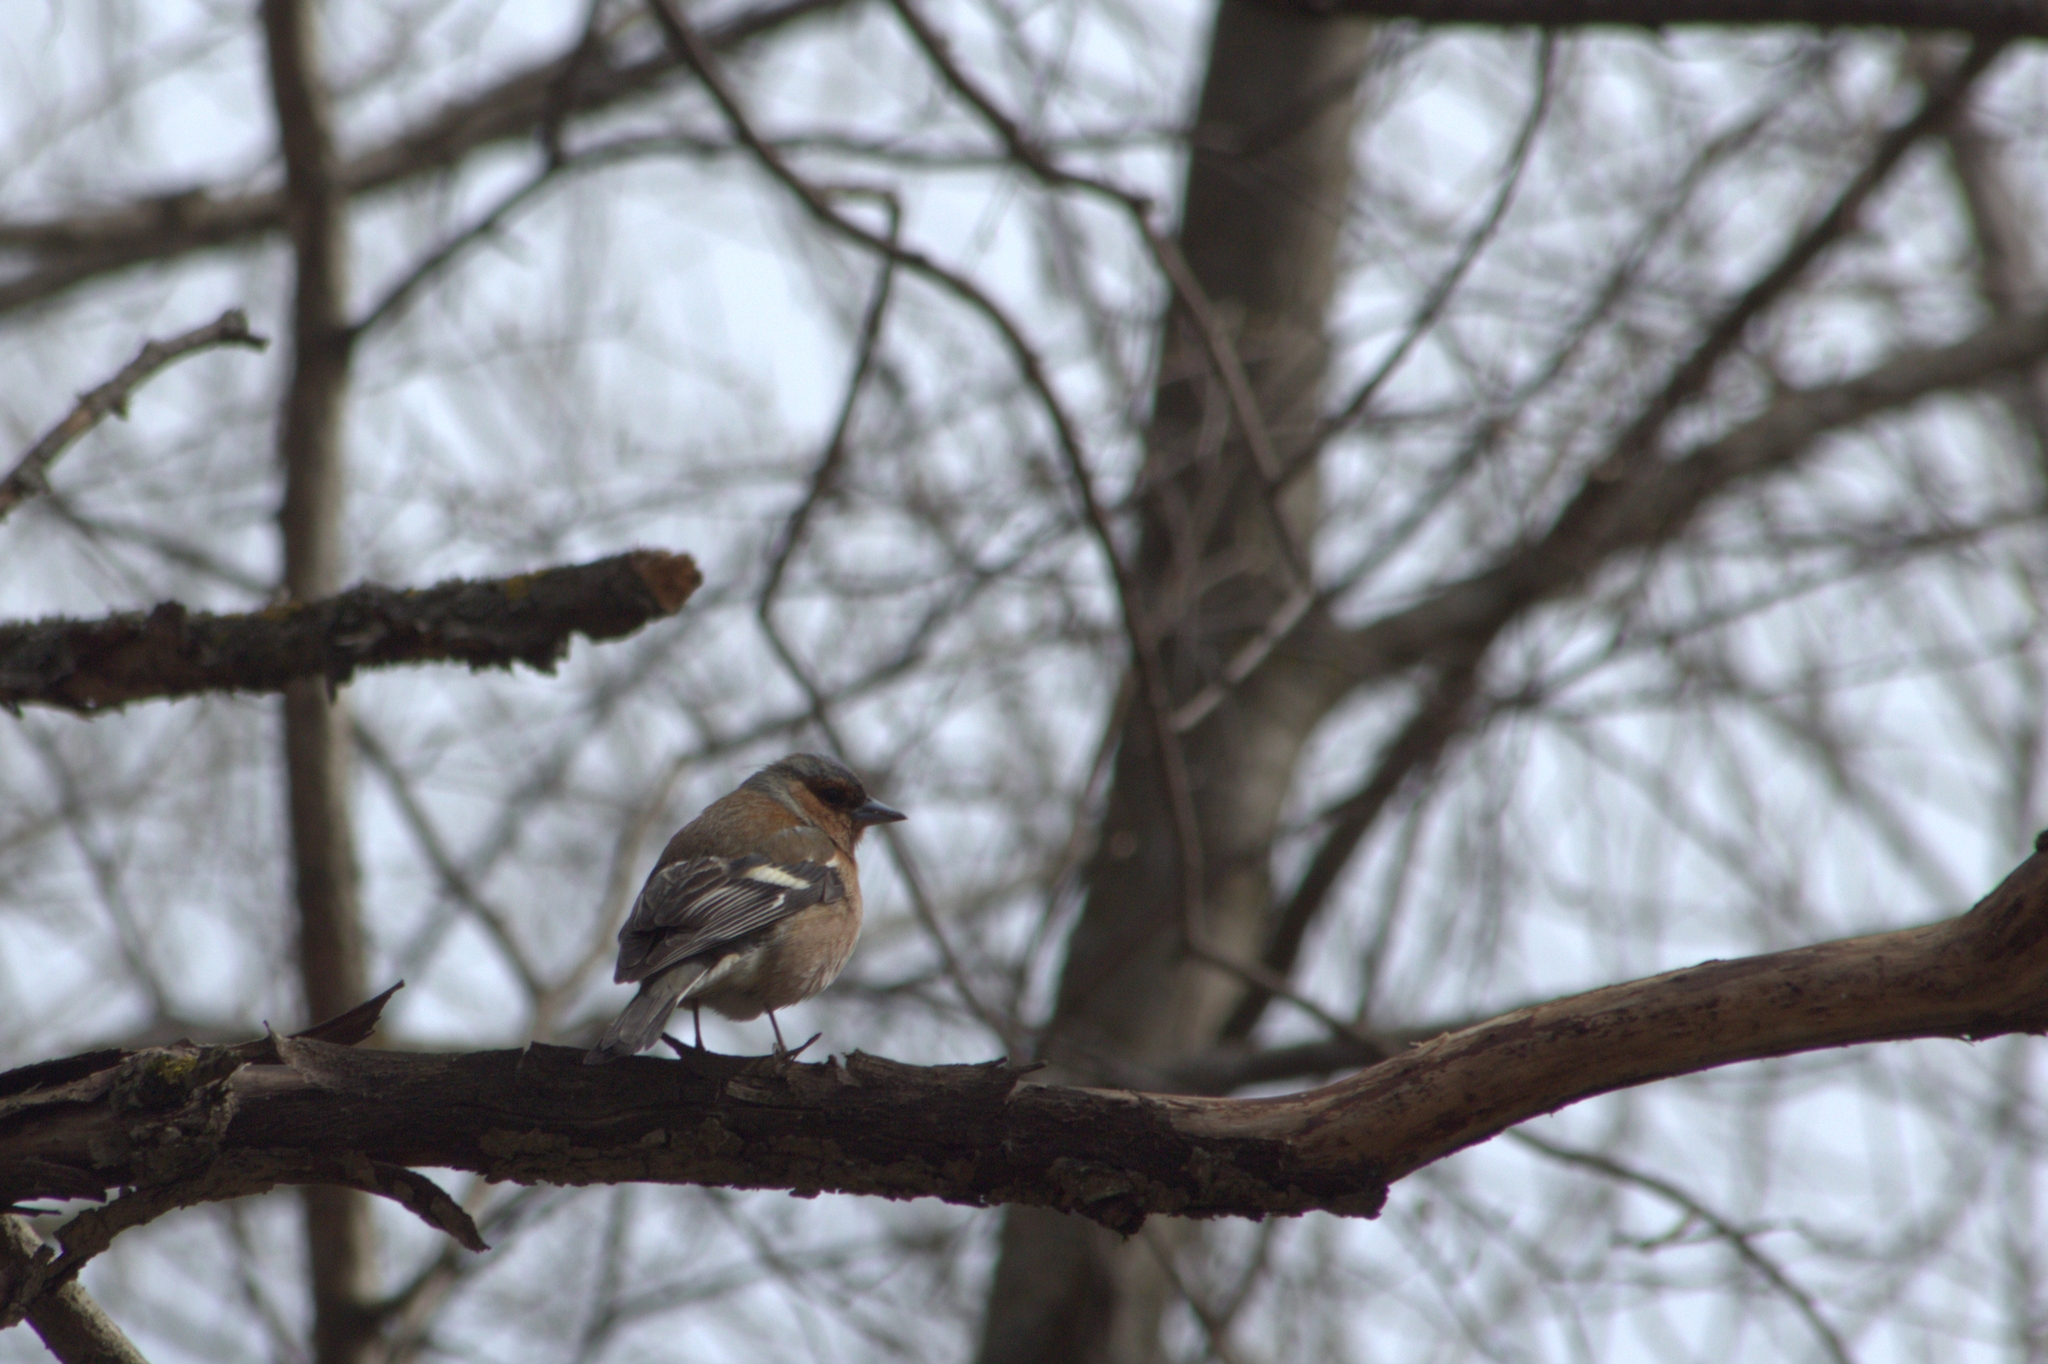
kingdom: Animalia
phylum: Chordata
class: Aves
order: Passeriformes
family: Fringillidae
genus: Fringilla
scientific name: Fringilla coelebs
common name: Common chaffinch
